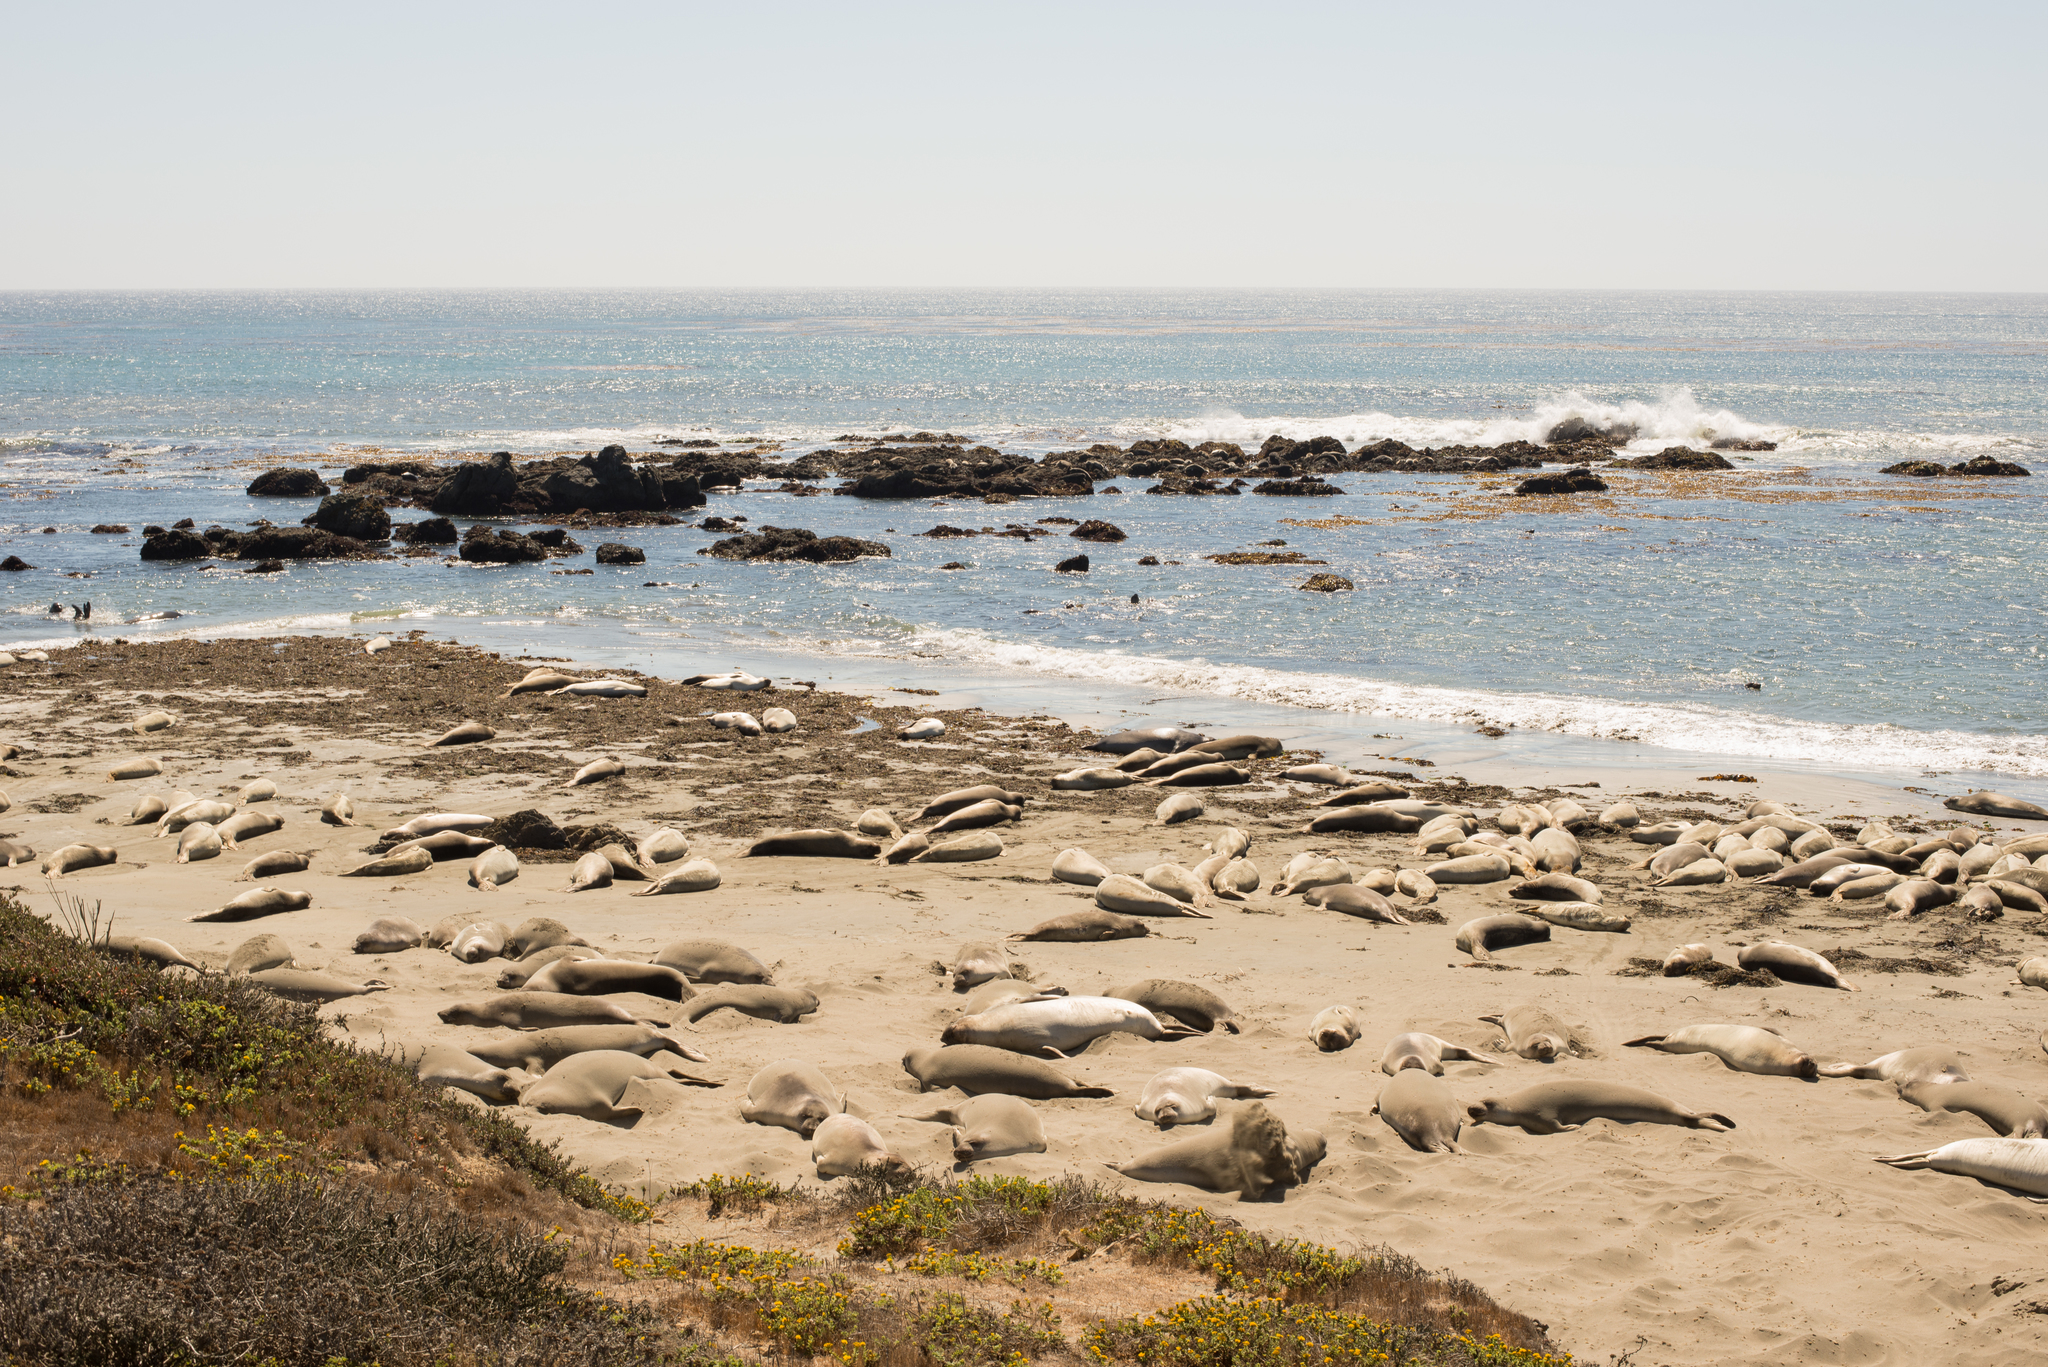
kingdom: Animalia
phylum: Chordata
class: Mammalia
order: Carnivora
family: Phocidae
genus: Mirounga
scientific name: Mirounga angustirostris
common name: Northern elephant seal
